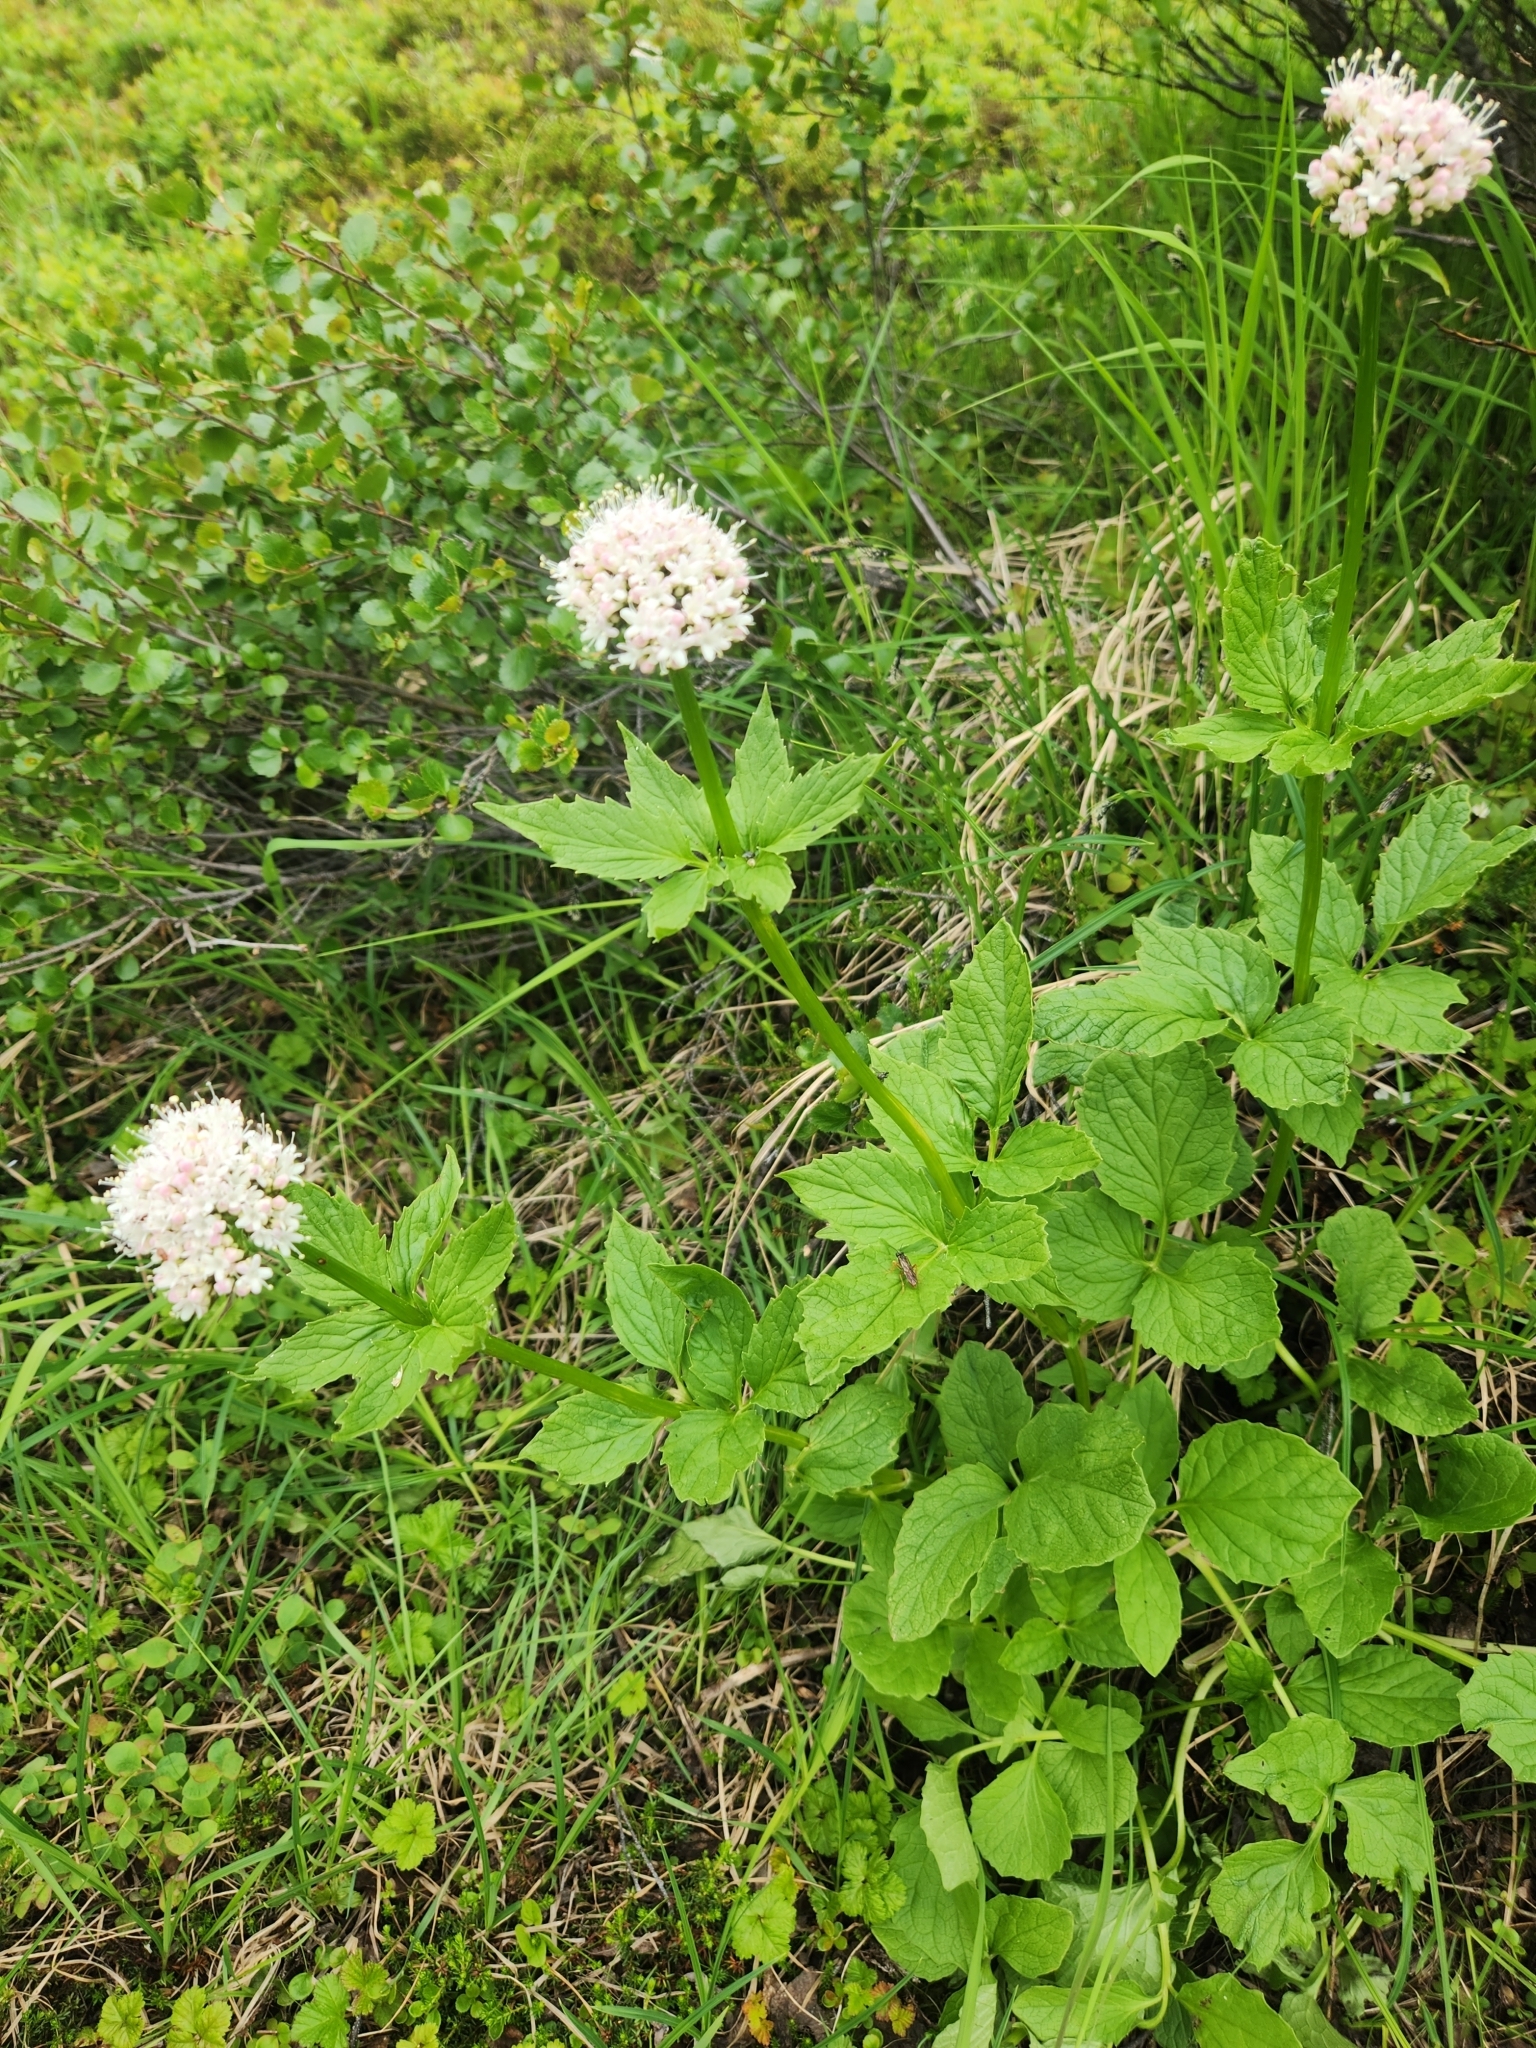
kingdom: Plantae
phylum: Tracheophyta
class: Magnoliopsida
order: Dipsacales
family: Caprifoliaceae
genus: Valeriana
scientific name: Valeriana sitchensis
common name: Pacific valerian
